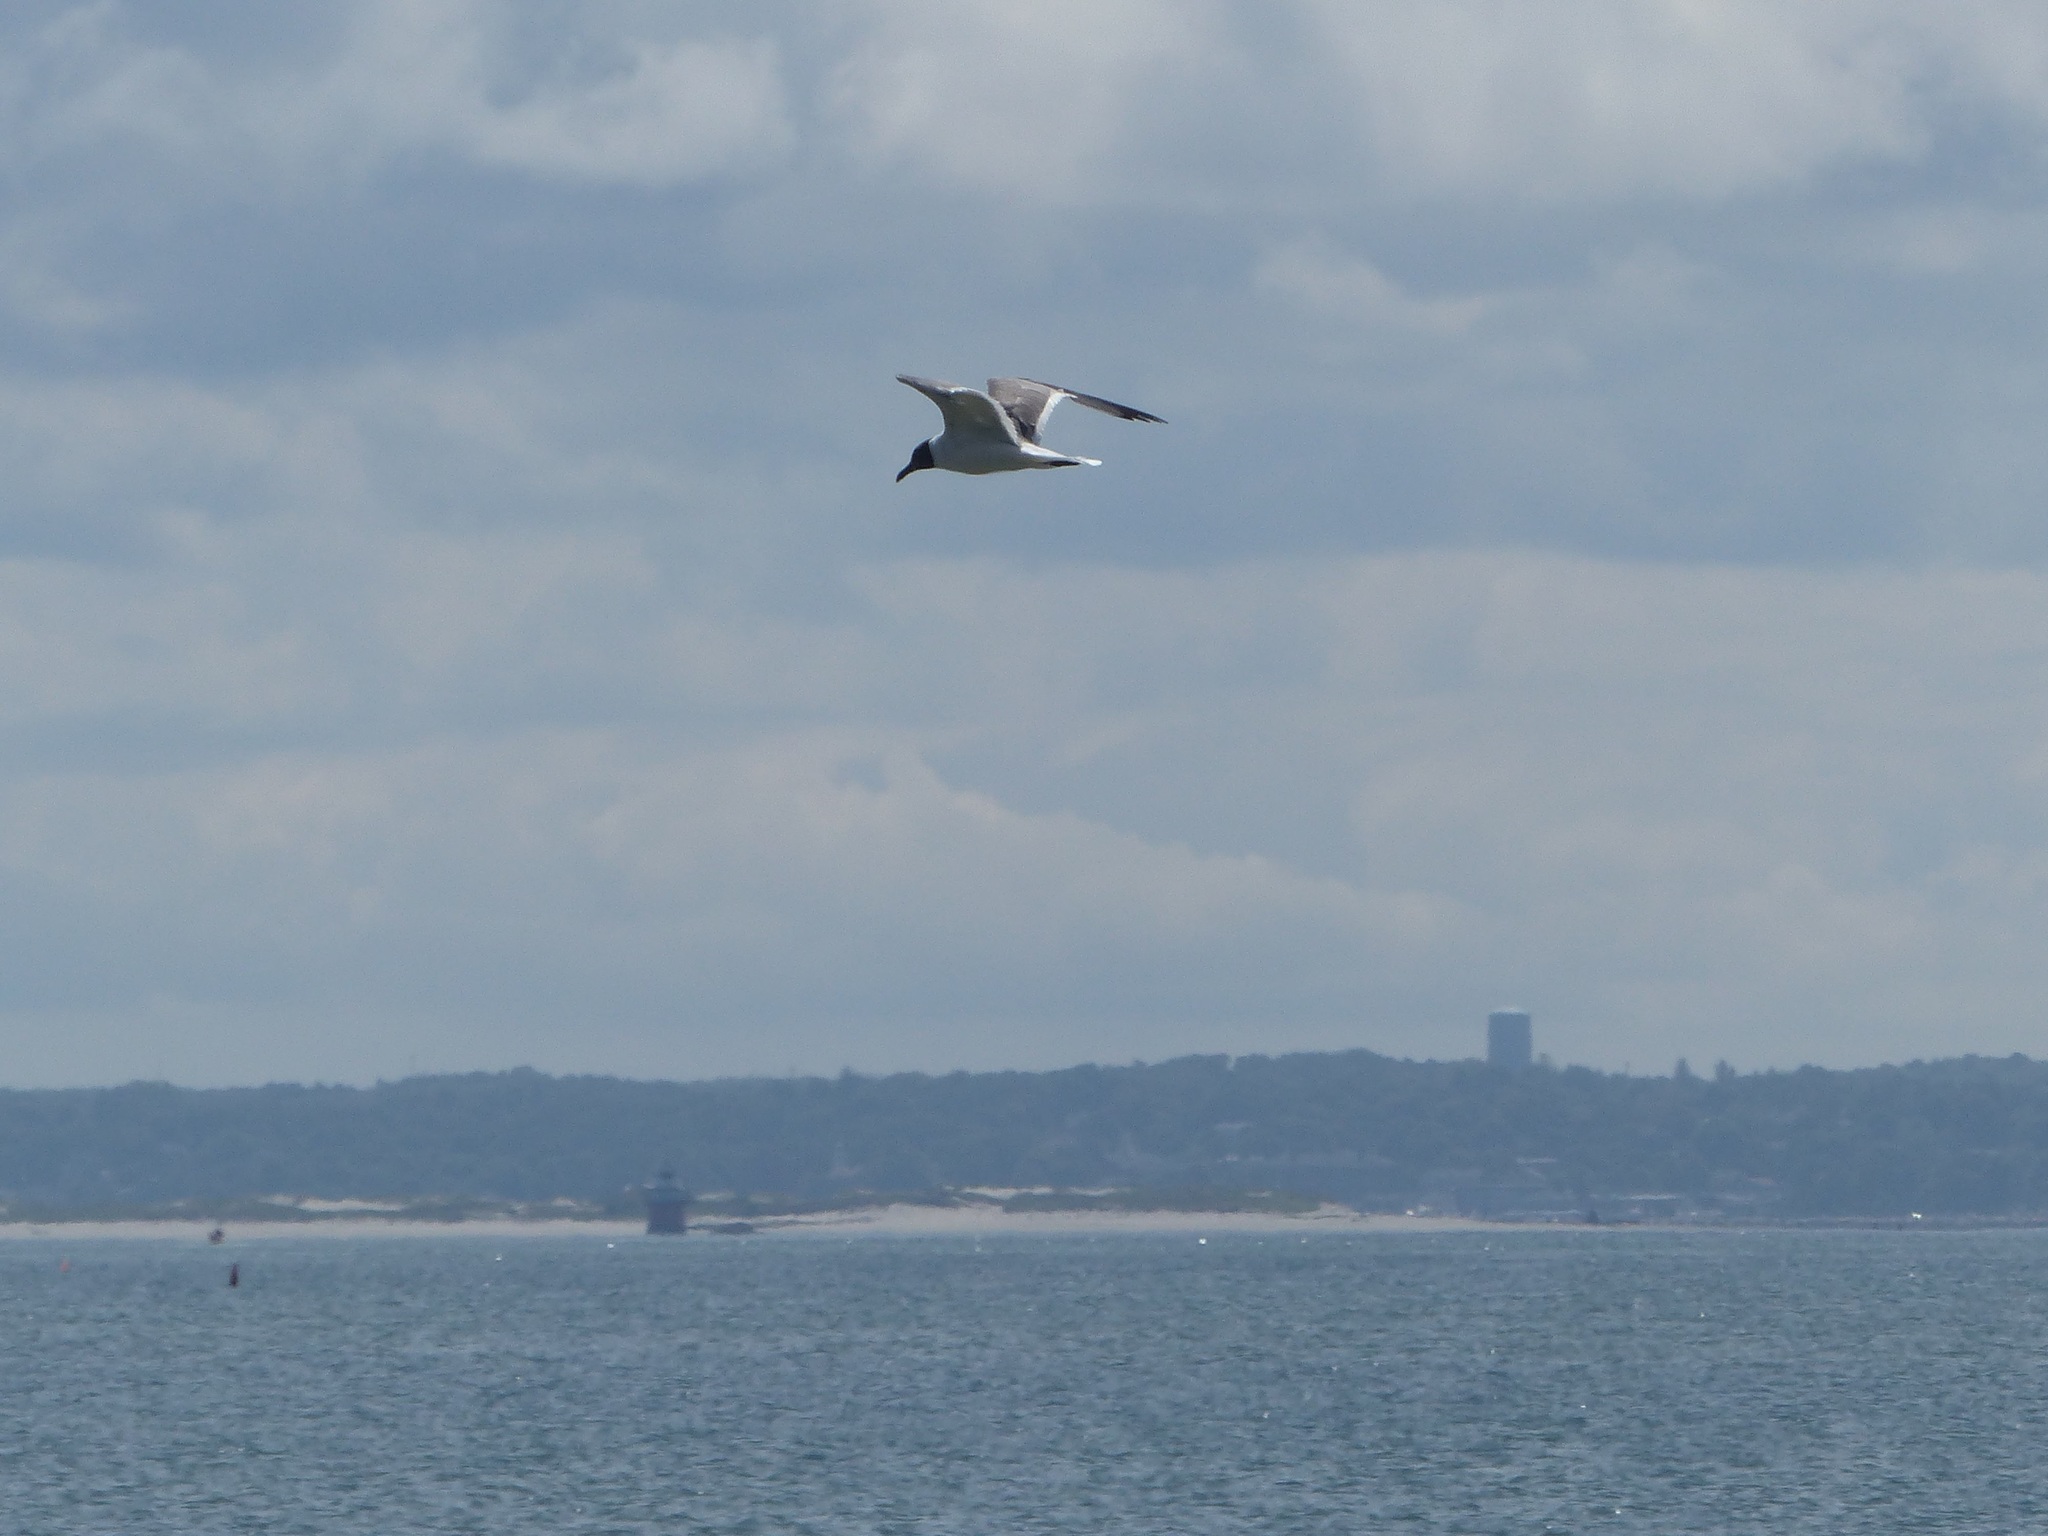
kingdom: Animalia
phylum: Chordata
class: Aves
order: Charadriiformes
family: Laridae
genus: Leucophaeus
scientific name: Leucophaeus atricilla
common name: Laughing gull
